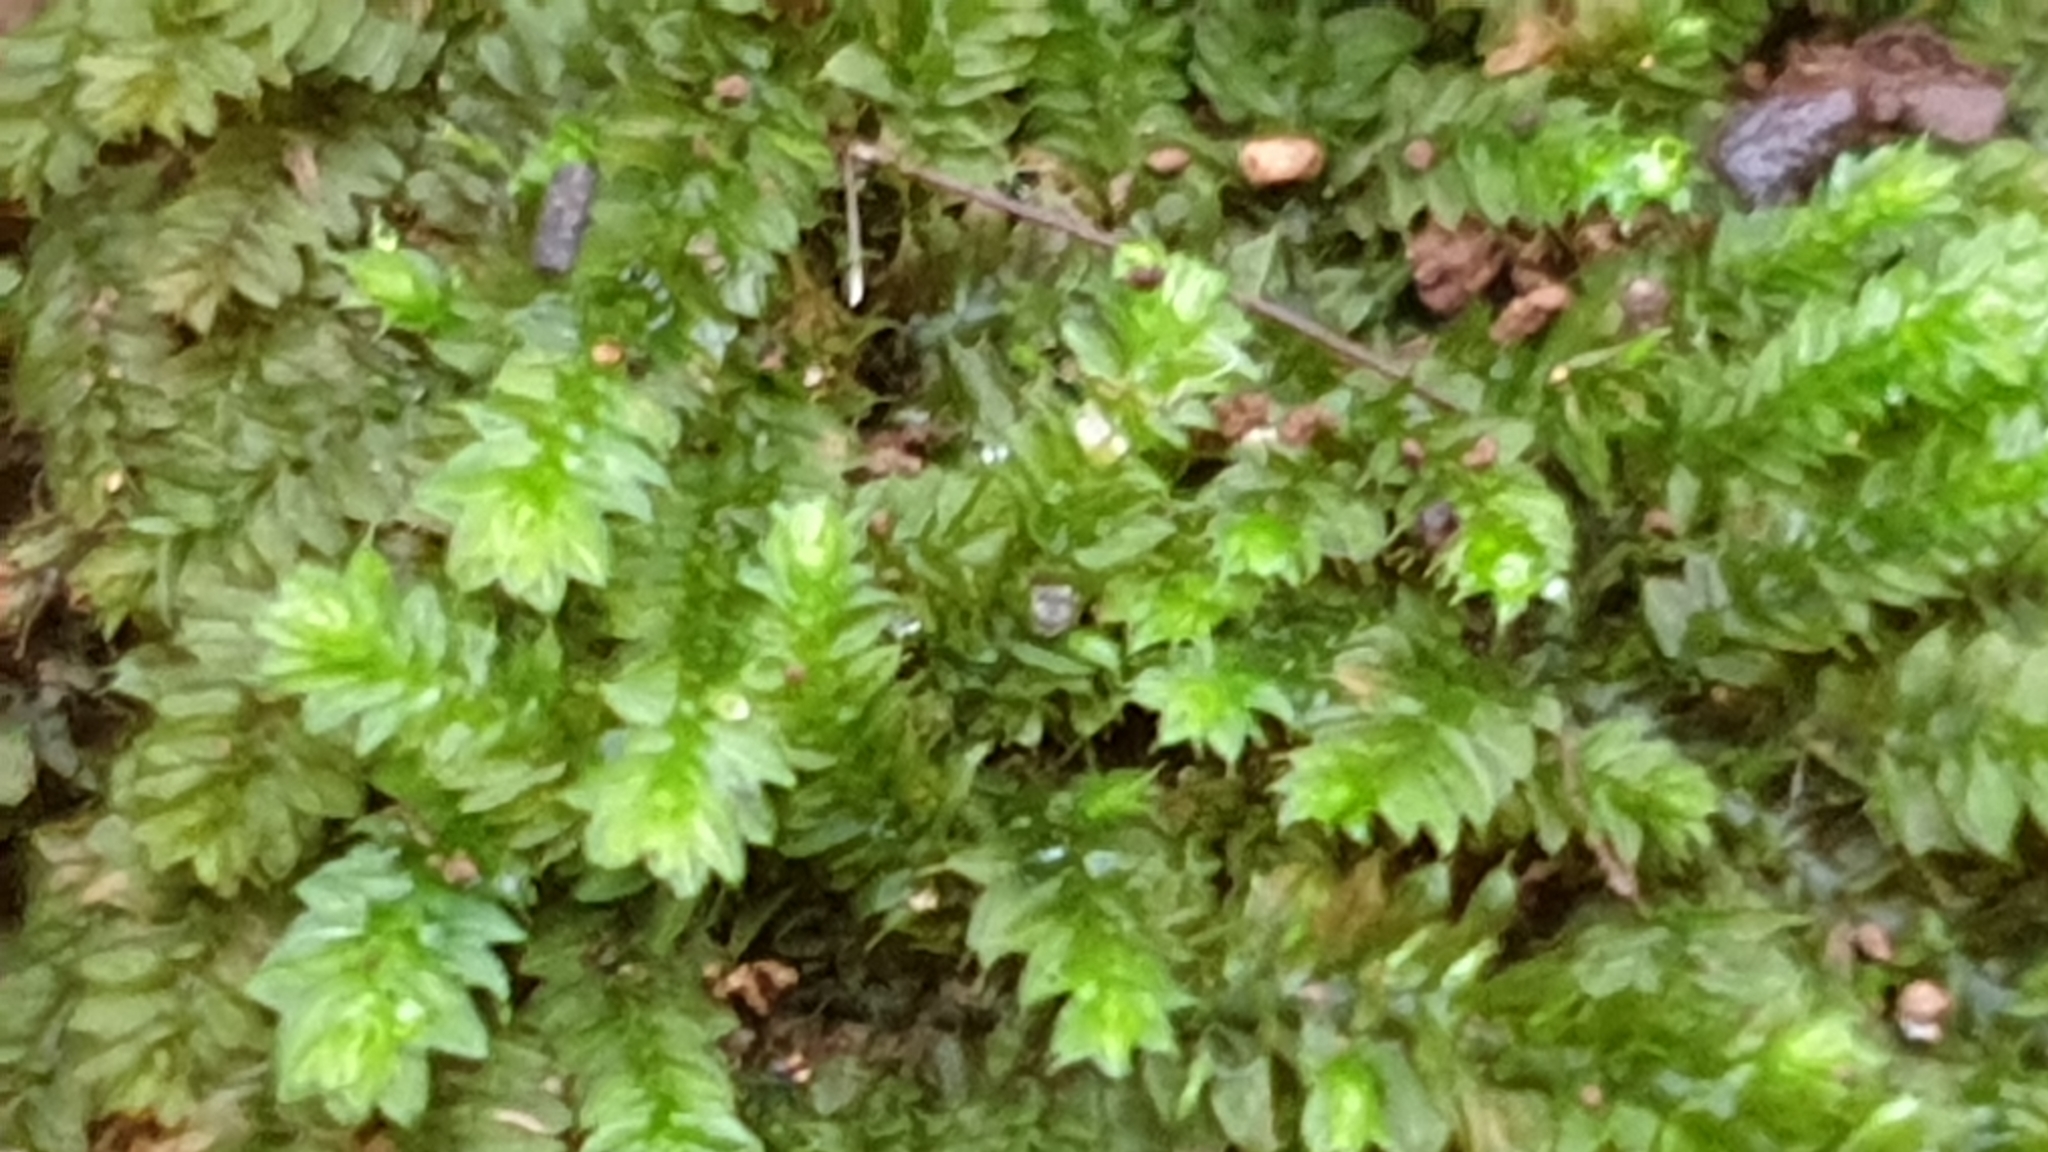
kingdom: Plantae
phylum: Bryophyta
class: Bryopsida
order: Hypnodendrales
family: Racopilaceae
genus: Racopilum
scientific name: Racopilum cuspidigerum
